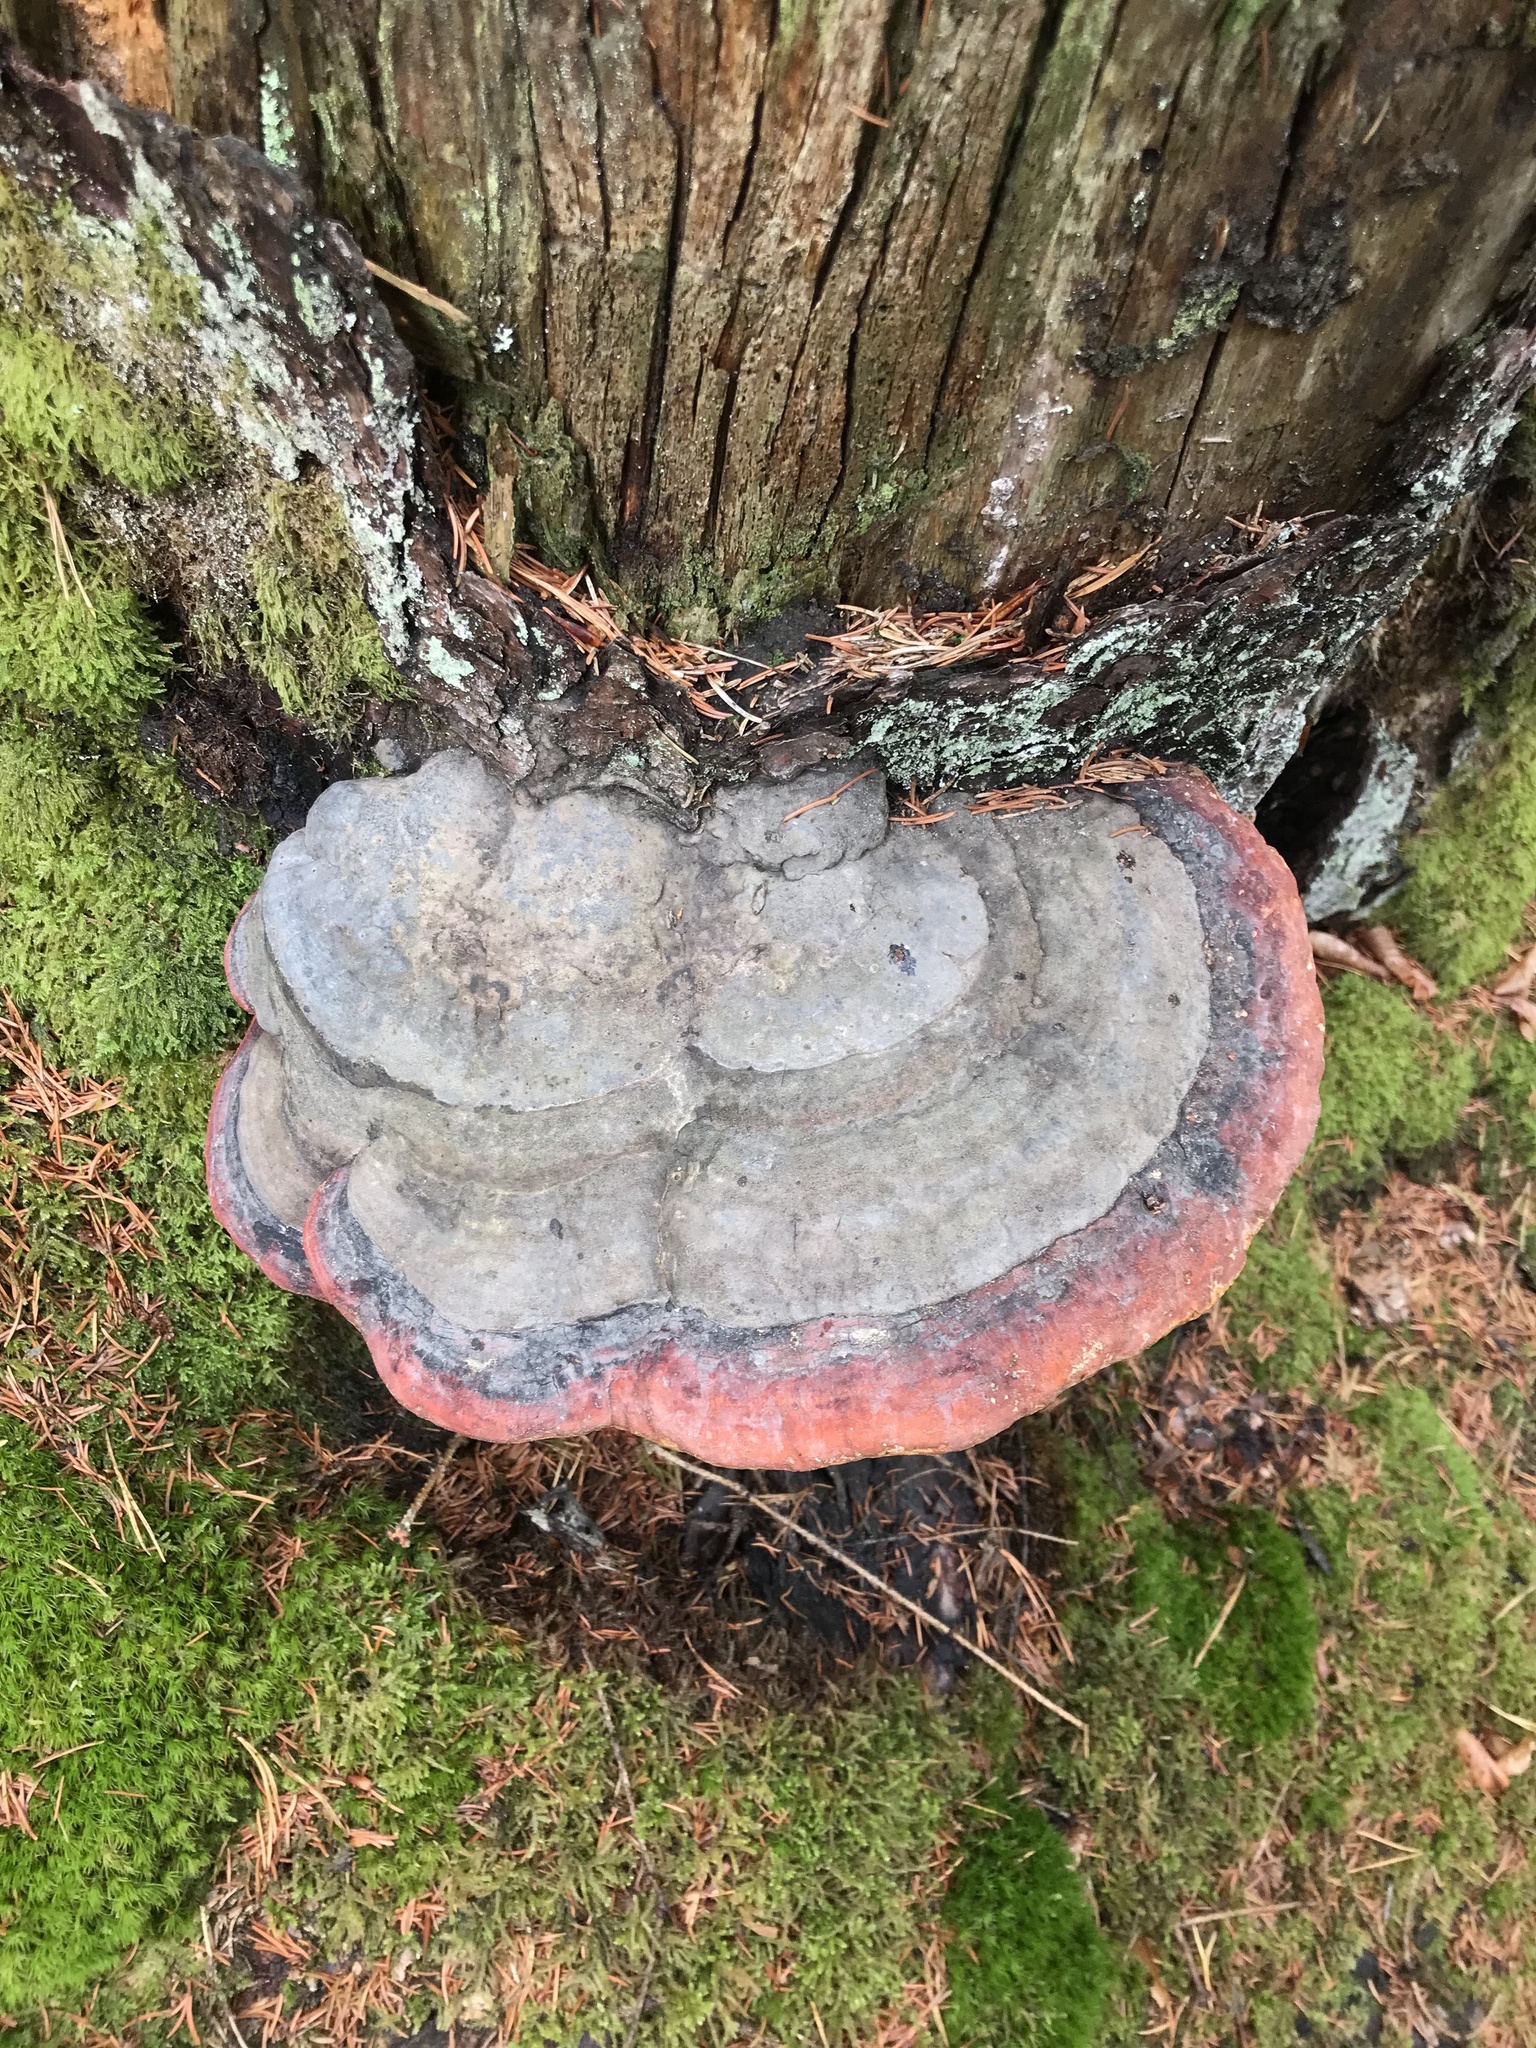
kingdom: Fungi
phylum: Basidiomycota
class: Agaricomycetes
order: Polyporales
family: Fomitopsidaceae
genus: Fomitopsis
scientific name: Fomitopsis pinicola
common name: Red-belted bracket
